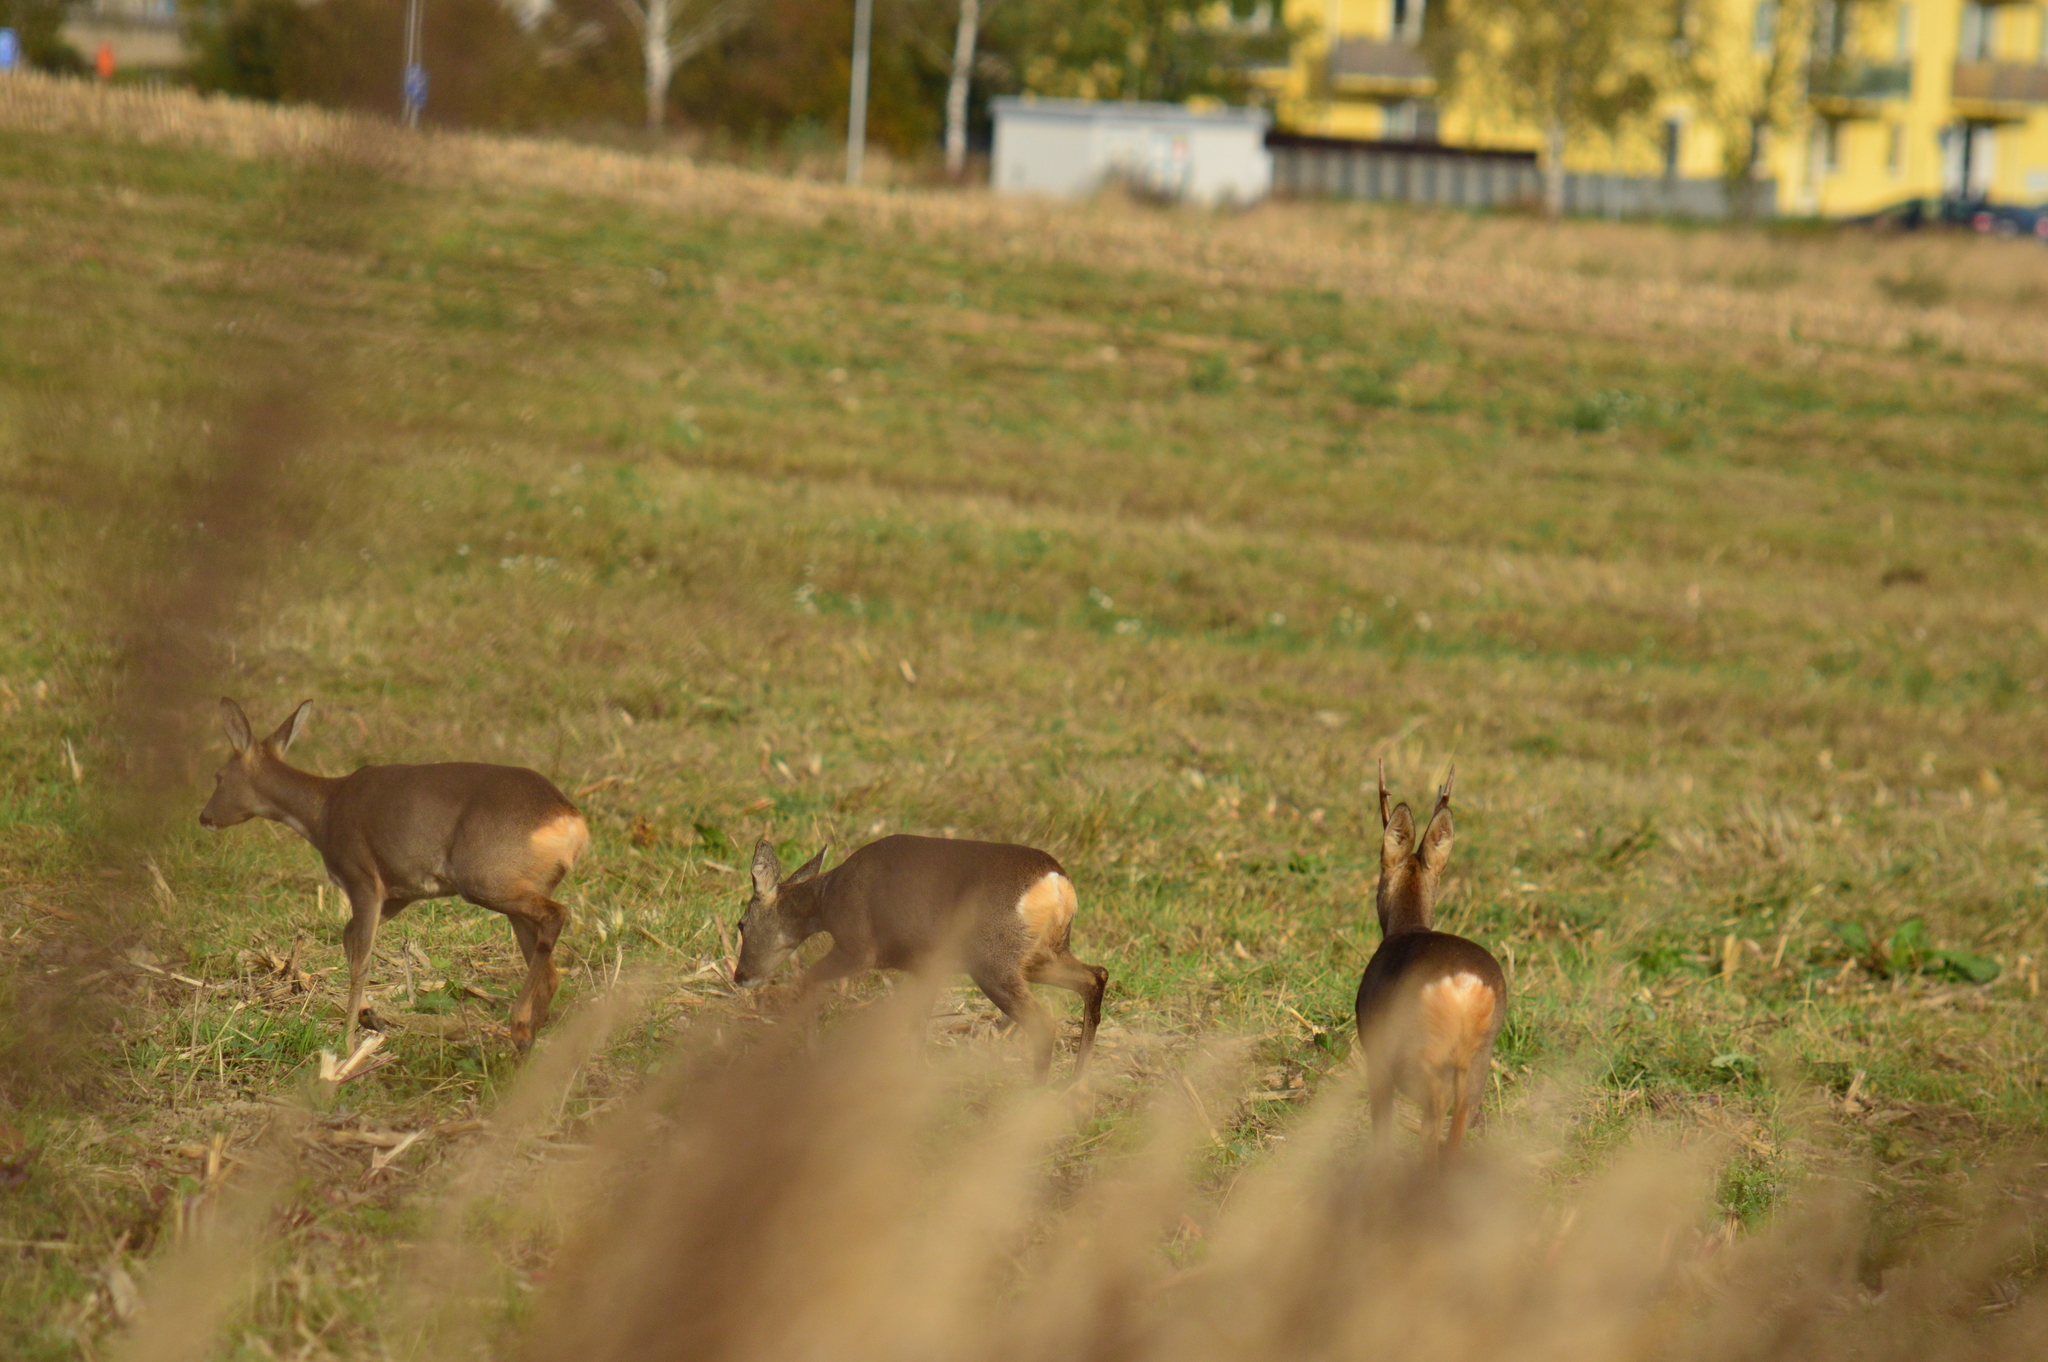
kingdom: Animalia
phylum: Chordata
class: Mammalia
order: Artiodactyla
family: Cervidae
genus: Capreolus
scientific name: Capreolus capreolus
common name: Western roe deer
